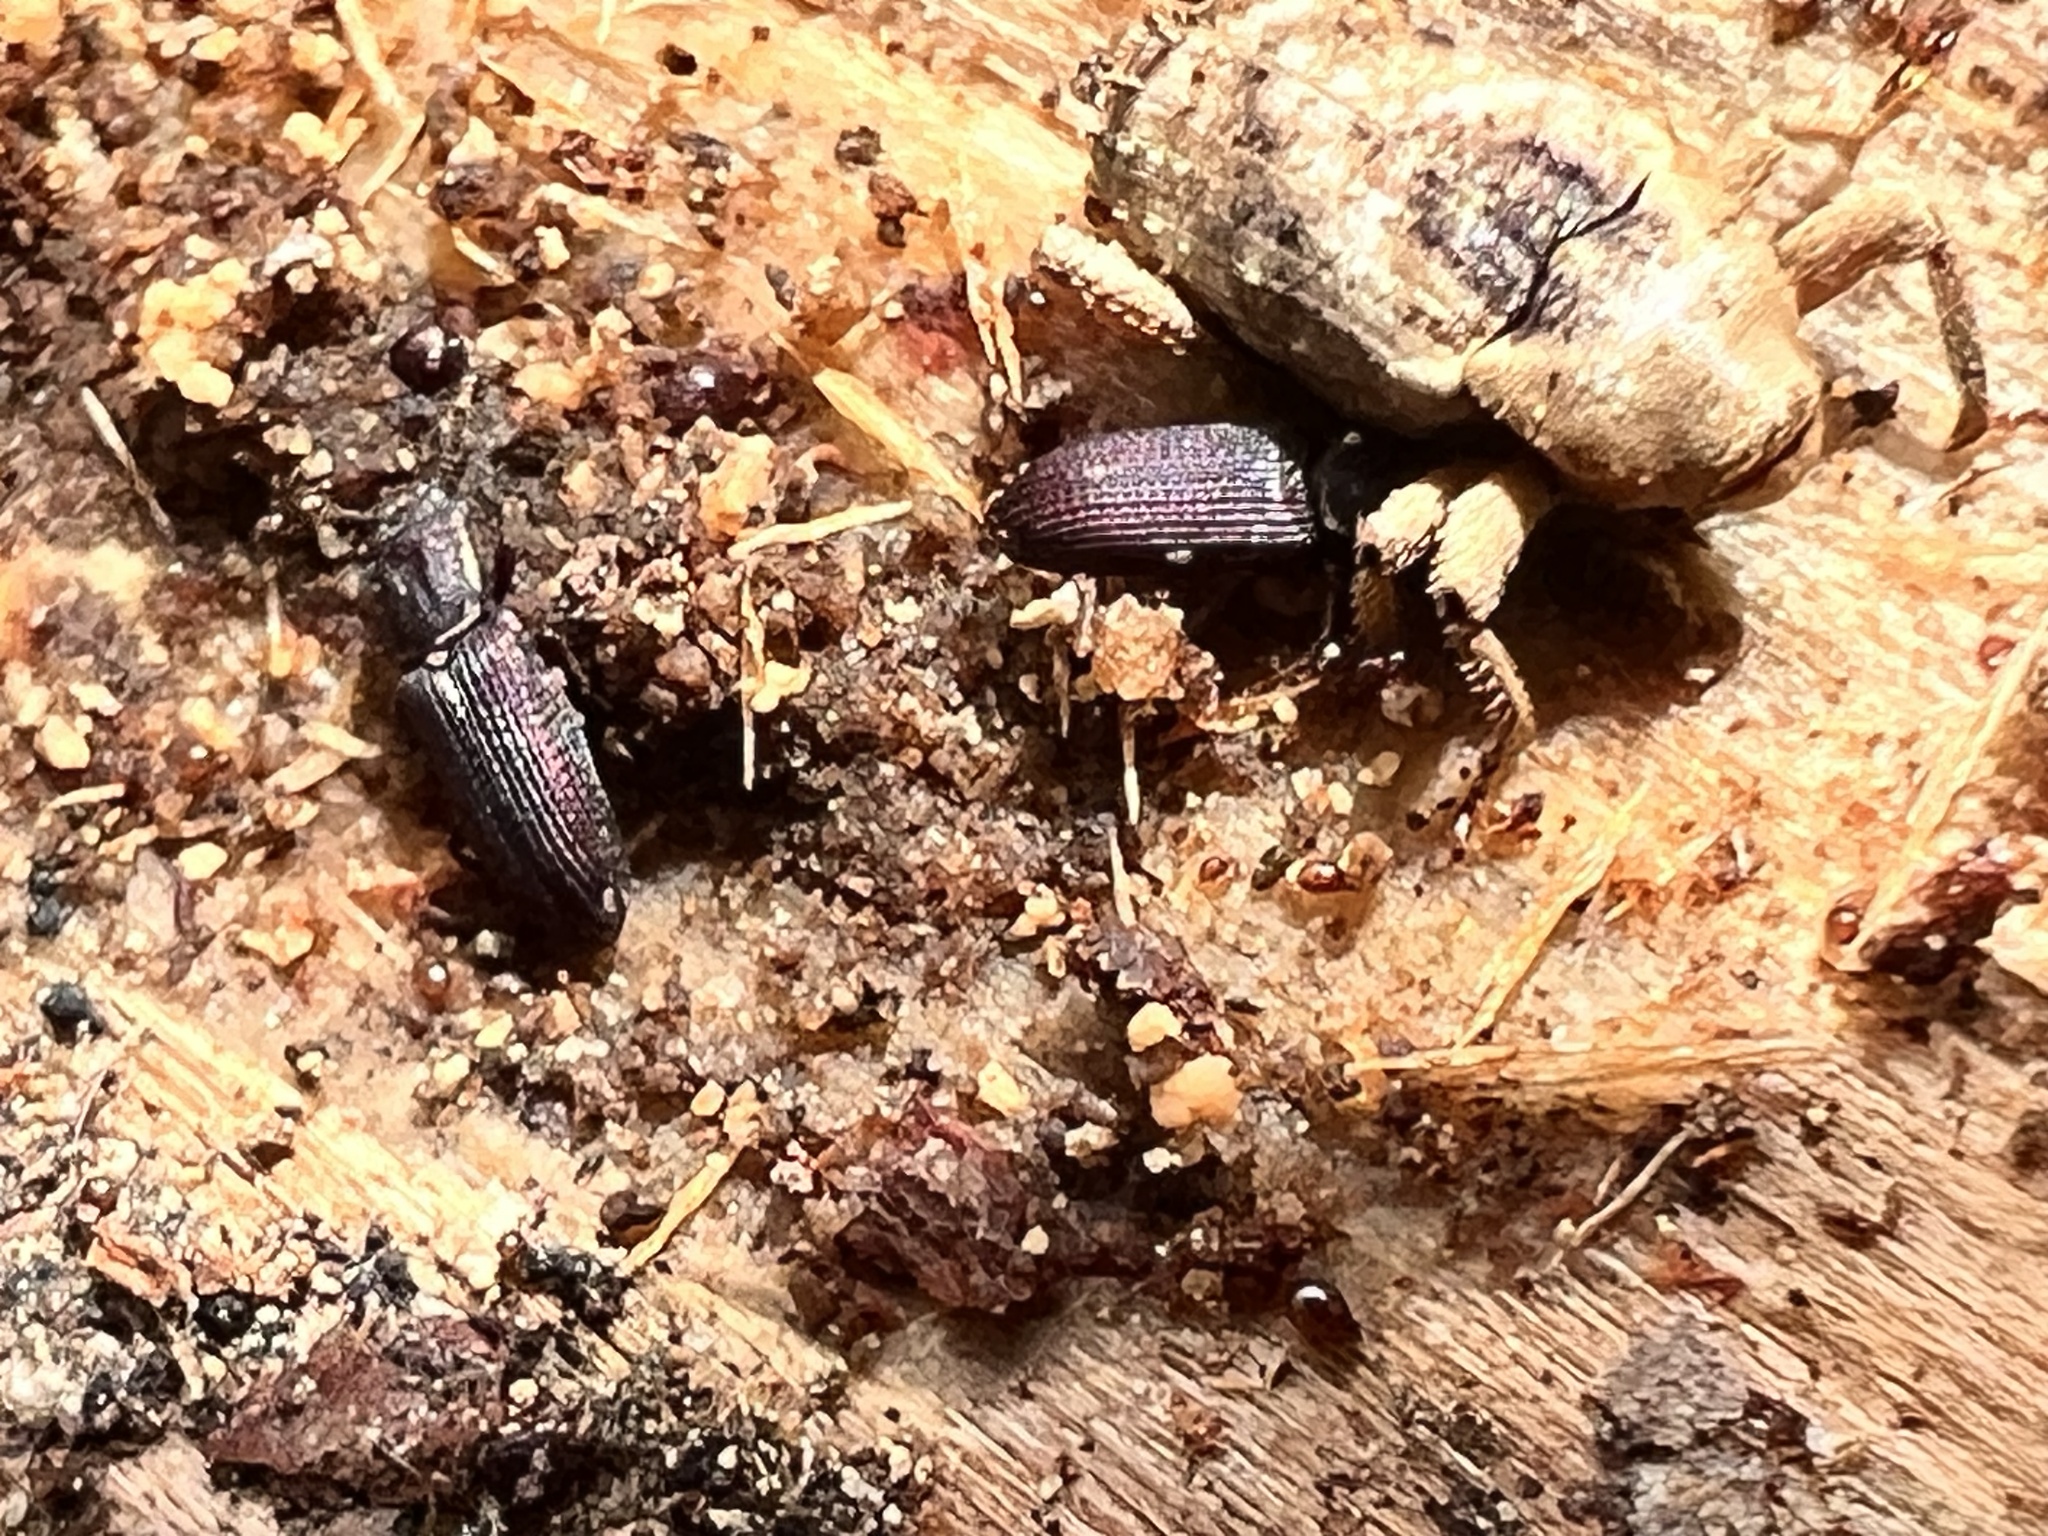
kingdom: Animalia
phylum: Arthropoda
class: Insecta
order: Coleoptera
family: Curculionidae
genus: Mitrastethus
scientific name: Mitrastethus baridioides
